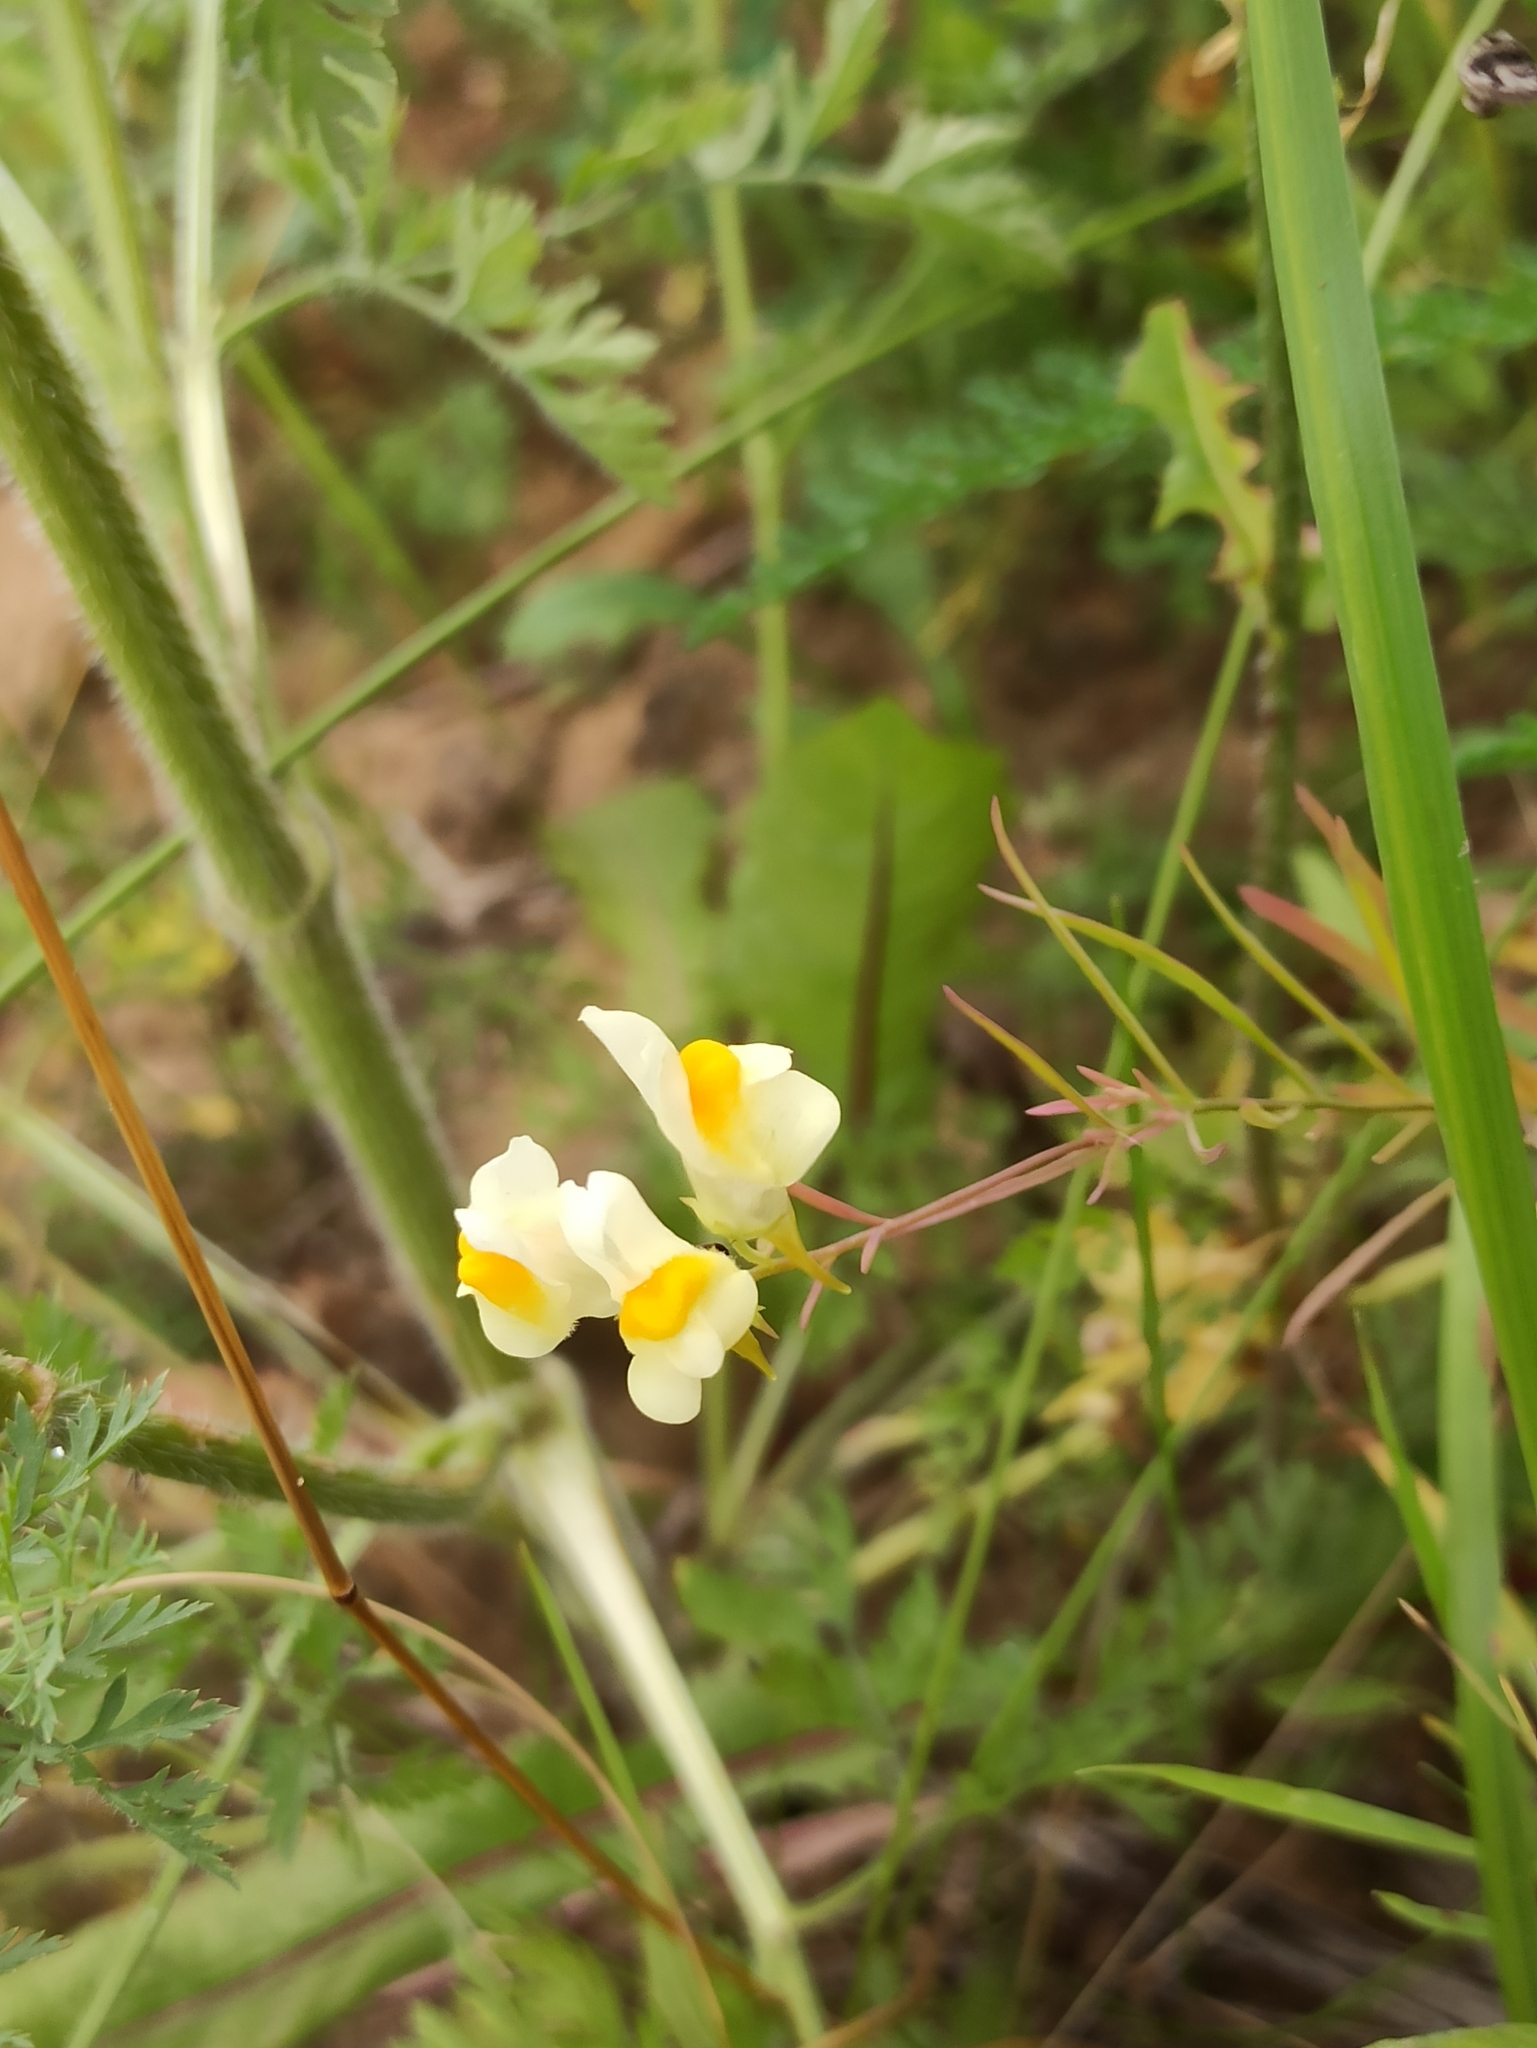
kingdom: Plantae
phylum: Tracheophyta
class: Magnoliopsida
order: Lamiales
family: Plantaginaceae
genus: Linaria
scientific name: Linaria vulgaris
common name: Butter and eggs
